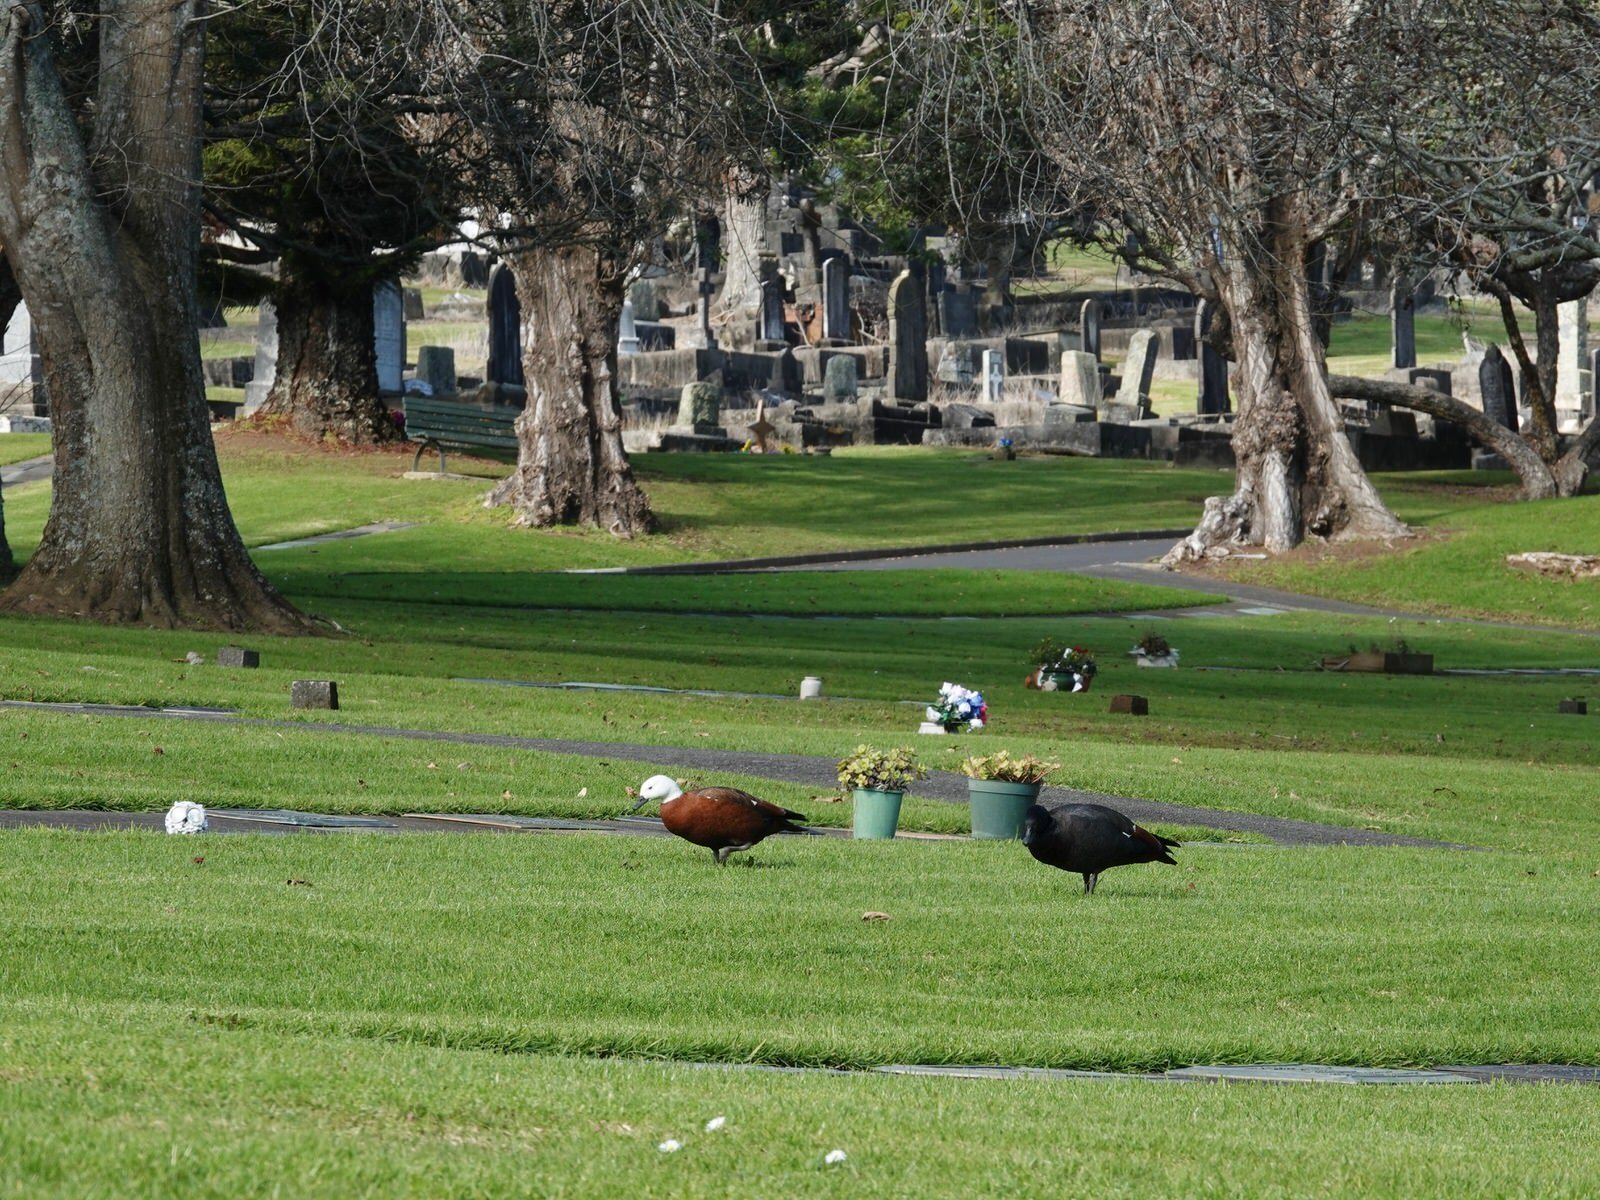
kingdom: Animalia
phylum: Chordata
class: Aves
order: Anseriformes
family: Anatidae
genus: Tadorna
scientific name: Tadorna variegata
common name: Paradise shelduck
